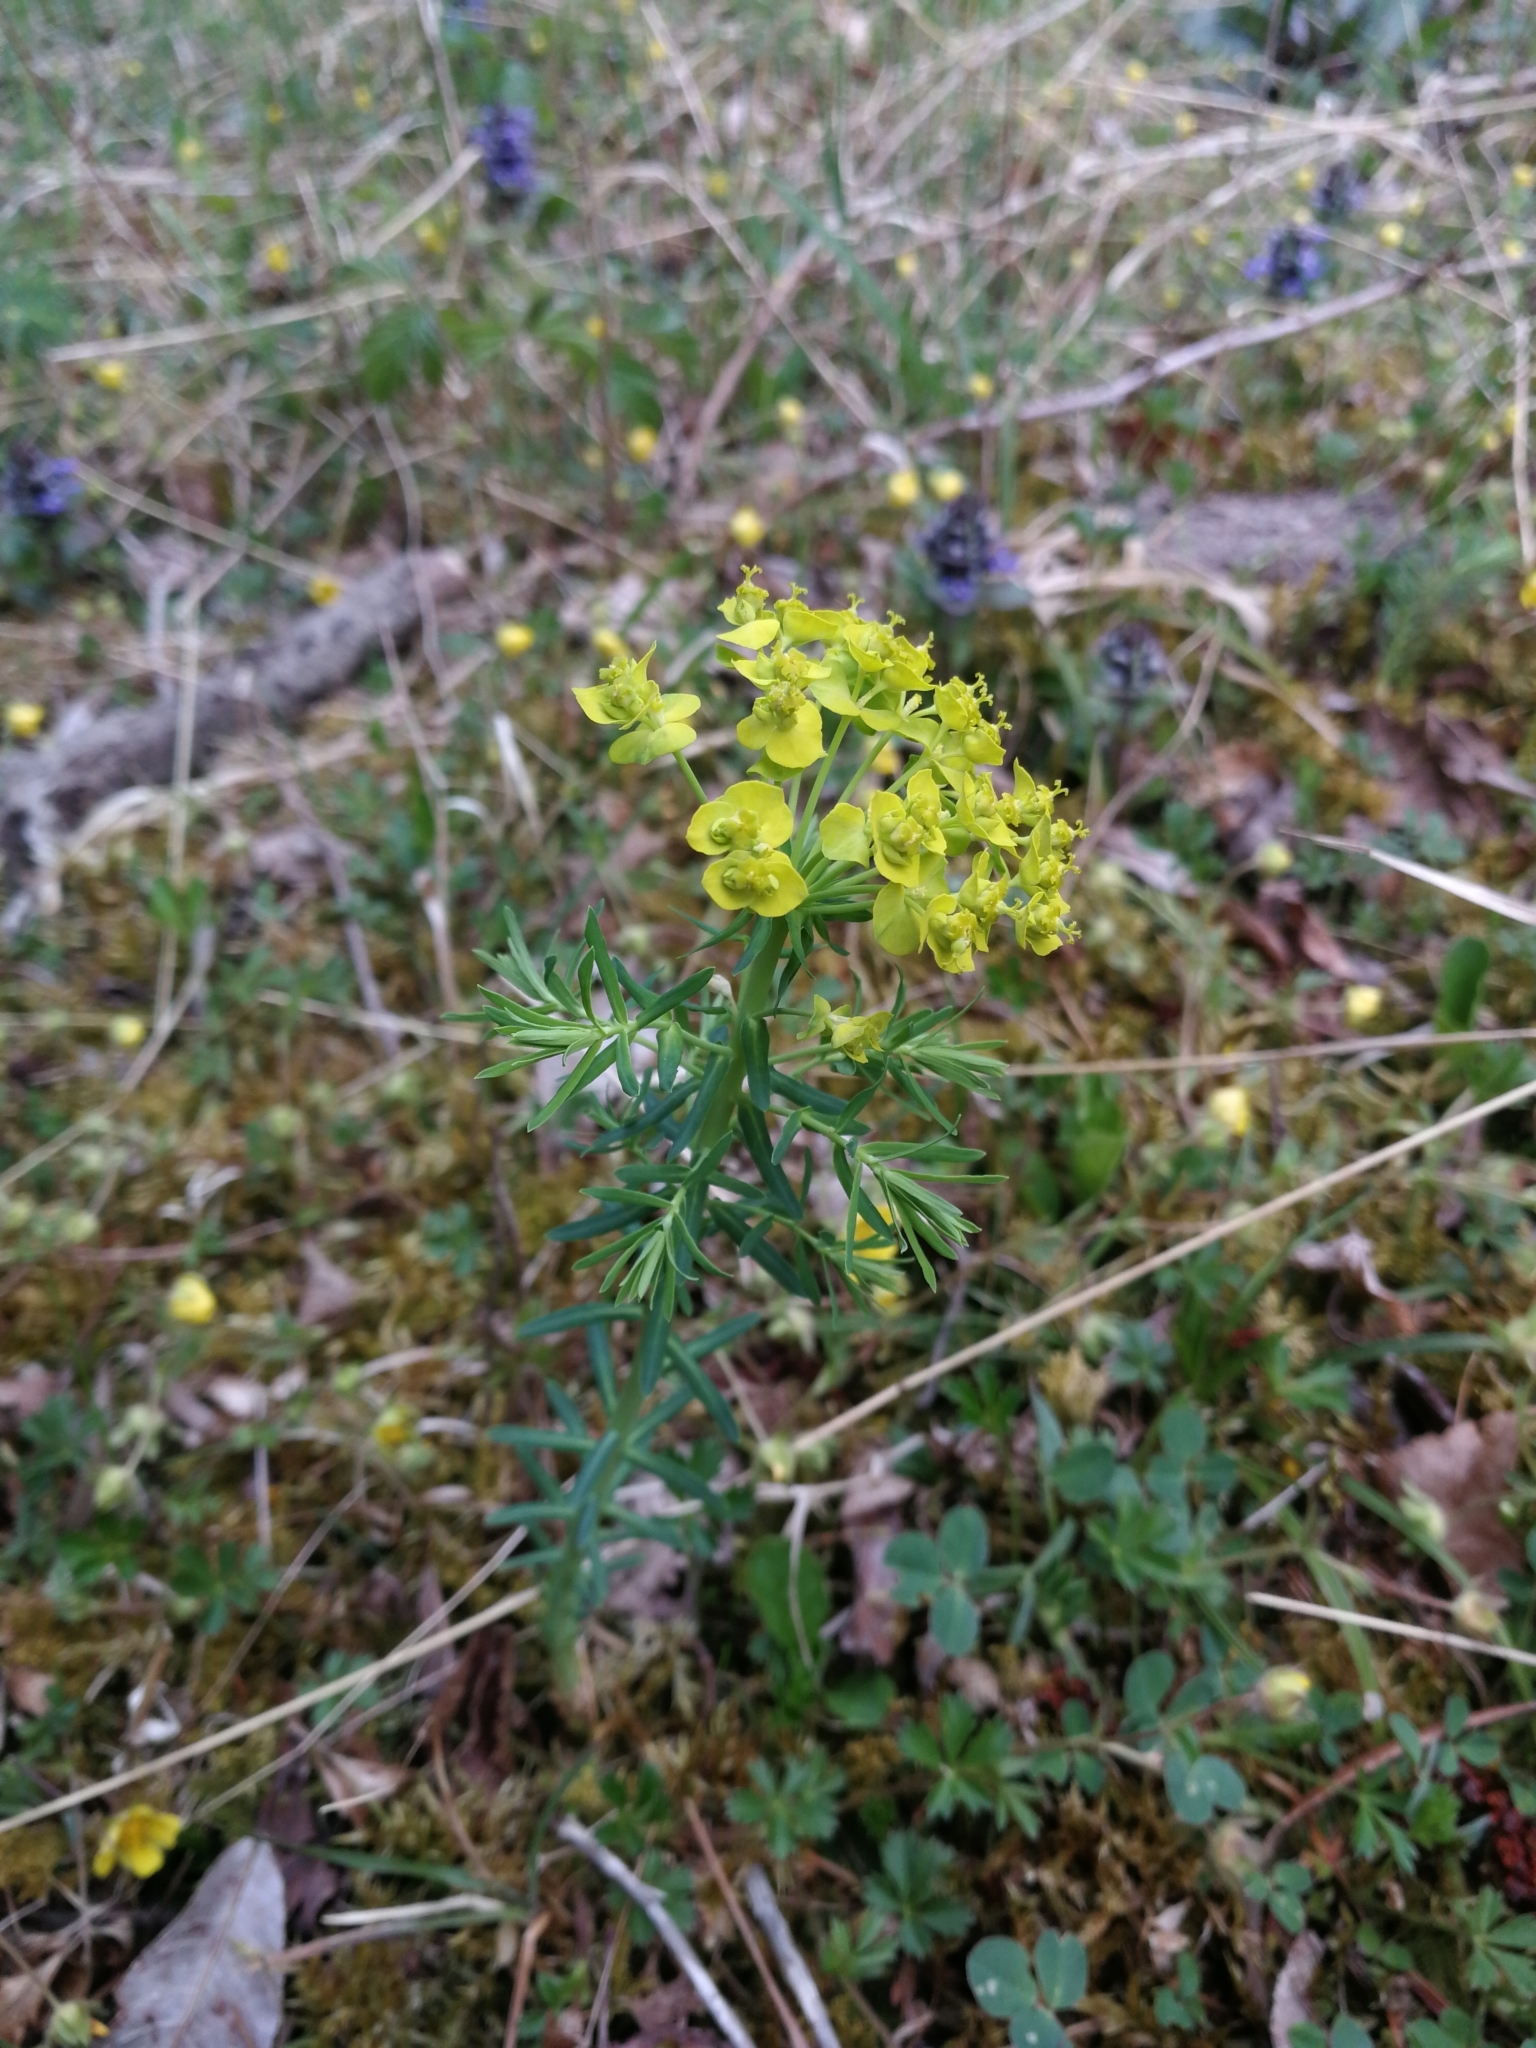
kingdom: Plantae
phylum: Tracheophyta
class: Magnoliopsida
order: Malpighiales
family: Euphorbiaceae
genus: Euphorbia
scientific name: Euphorbia cyparissias
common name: Cypress spurge
